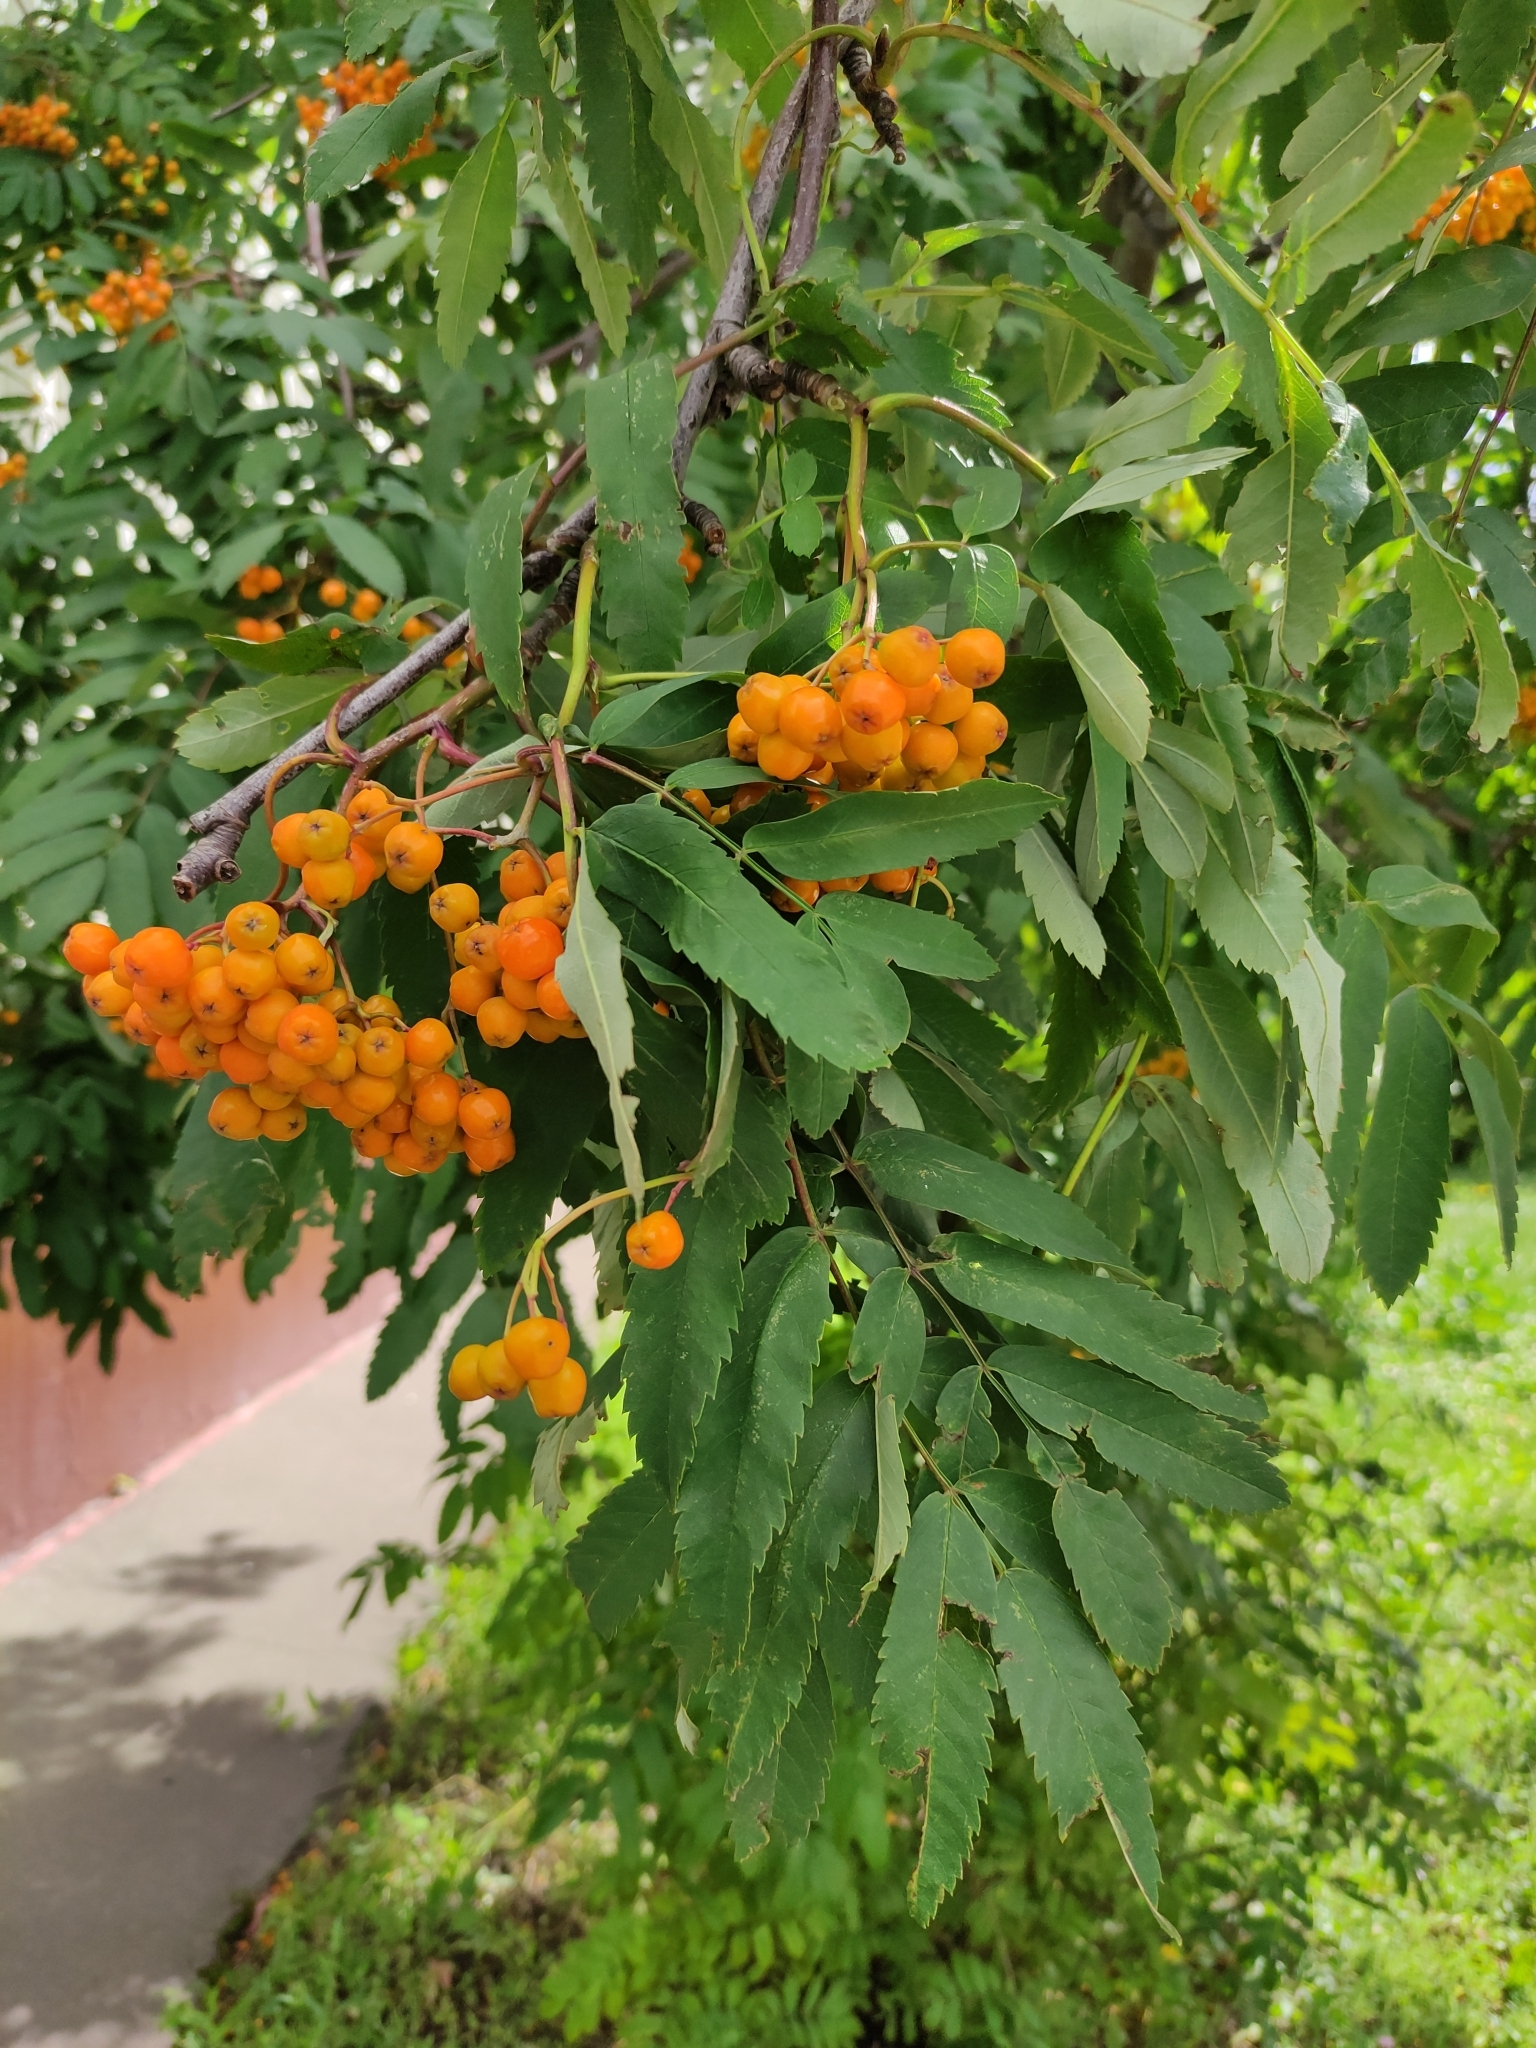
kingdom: Plantae
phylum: Tracheophyta
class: Magnoliopsida
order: Rosales
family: Rosaceae
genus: Sorbus
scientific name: Sorbus aucuparia
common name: Rowan
